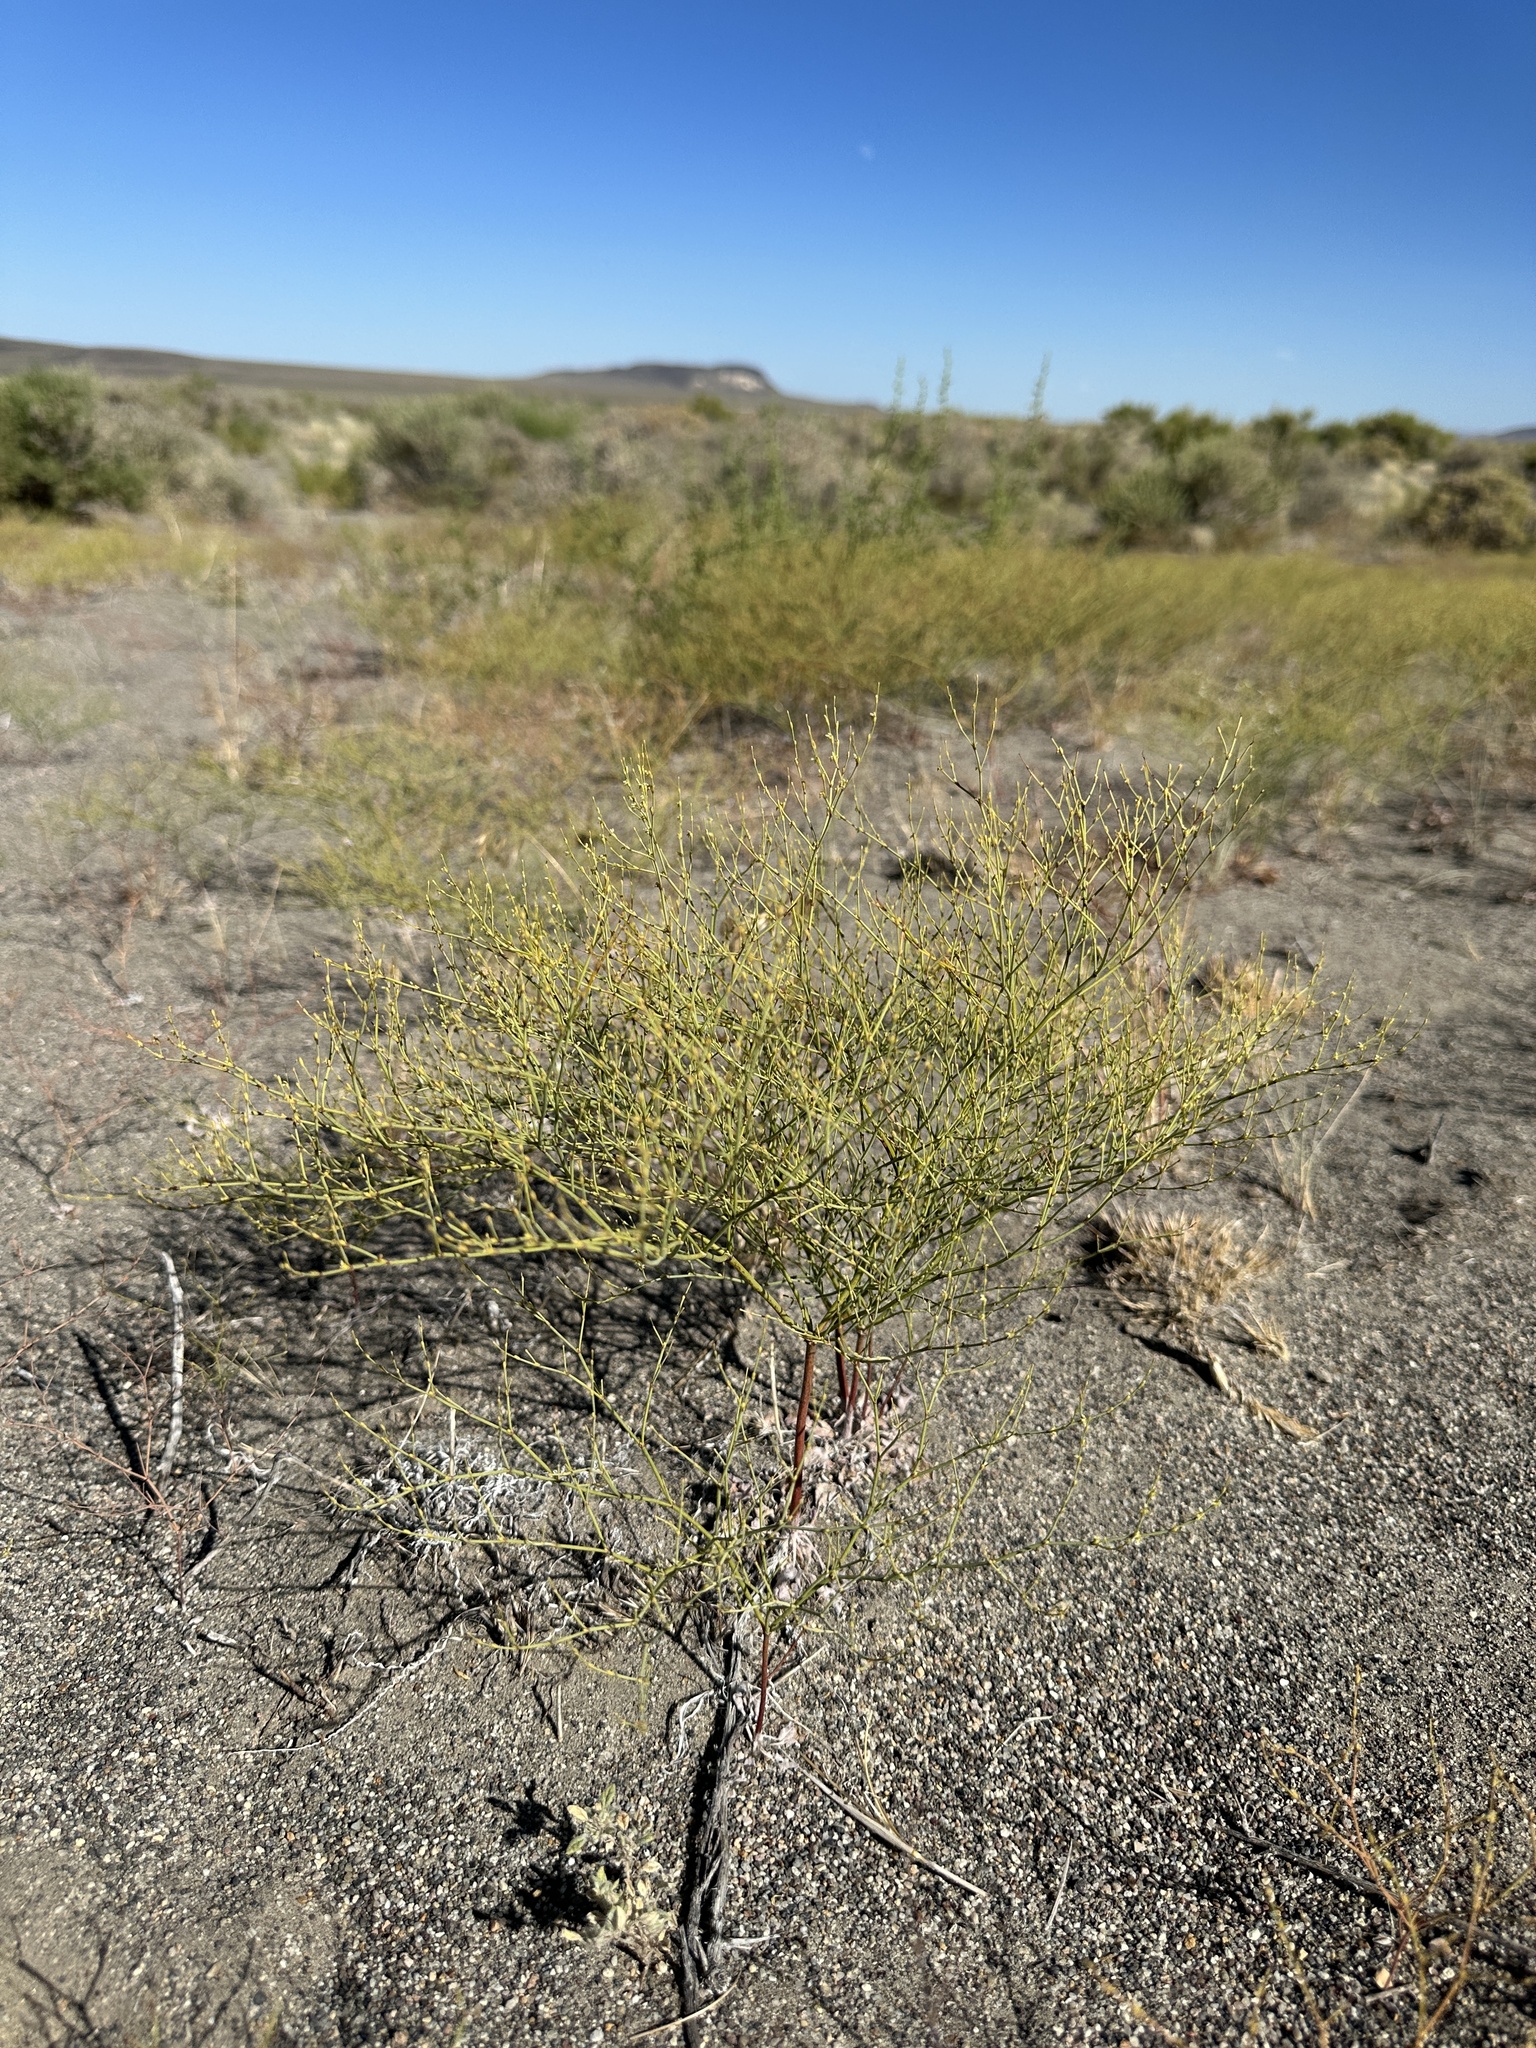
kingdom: Plantae
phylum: Tracheophyta
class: Magnoliopsida
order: Caryophyllales
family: Polygonaceae
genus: Eriogonum
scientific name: Eriogonum brachyanthum
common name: Short-flower wild buckwheat
